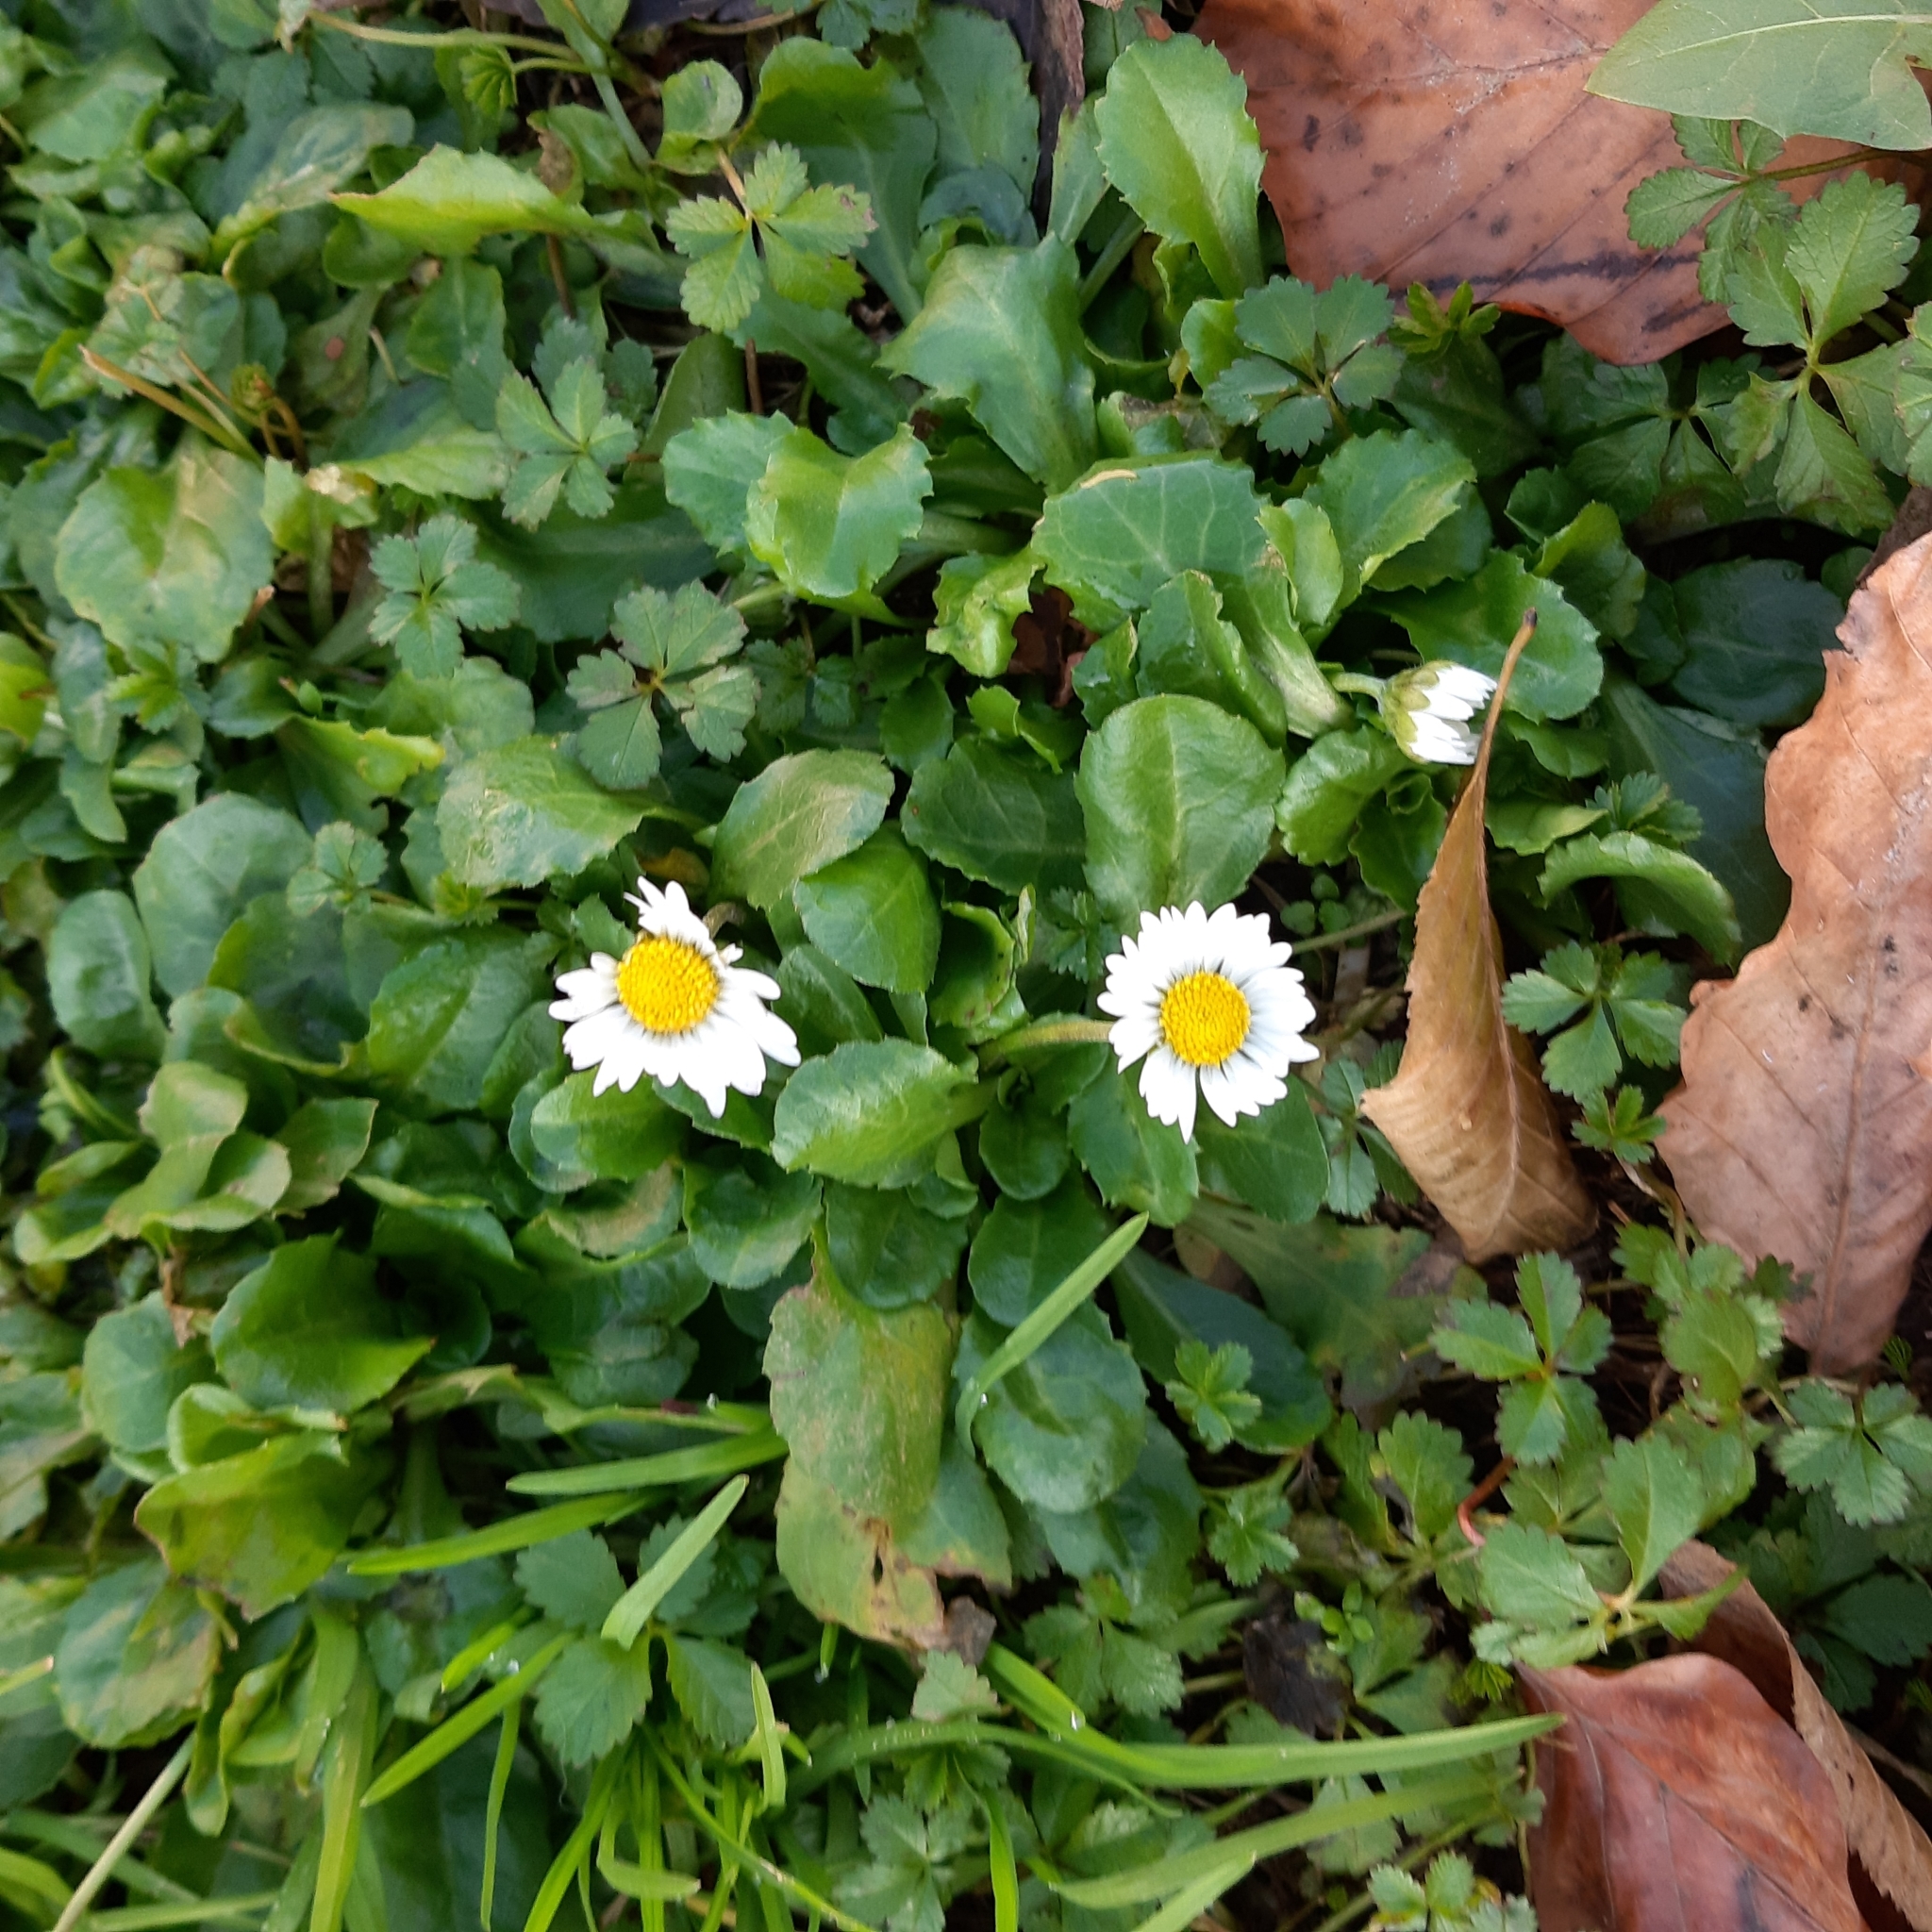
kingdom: Plantae
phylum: Tracheophyta
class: Magnoliopsida
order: Asterales
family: Asteraceae
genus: Bellis
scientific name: Bellis perennis
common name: Lawndaisy
